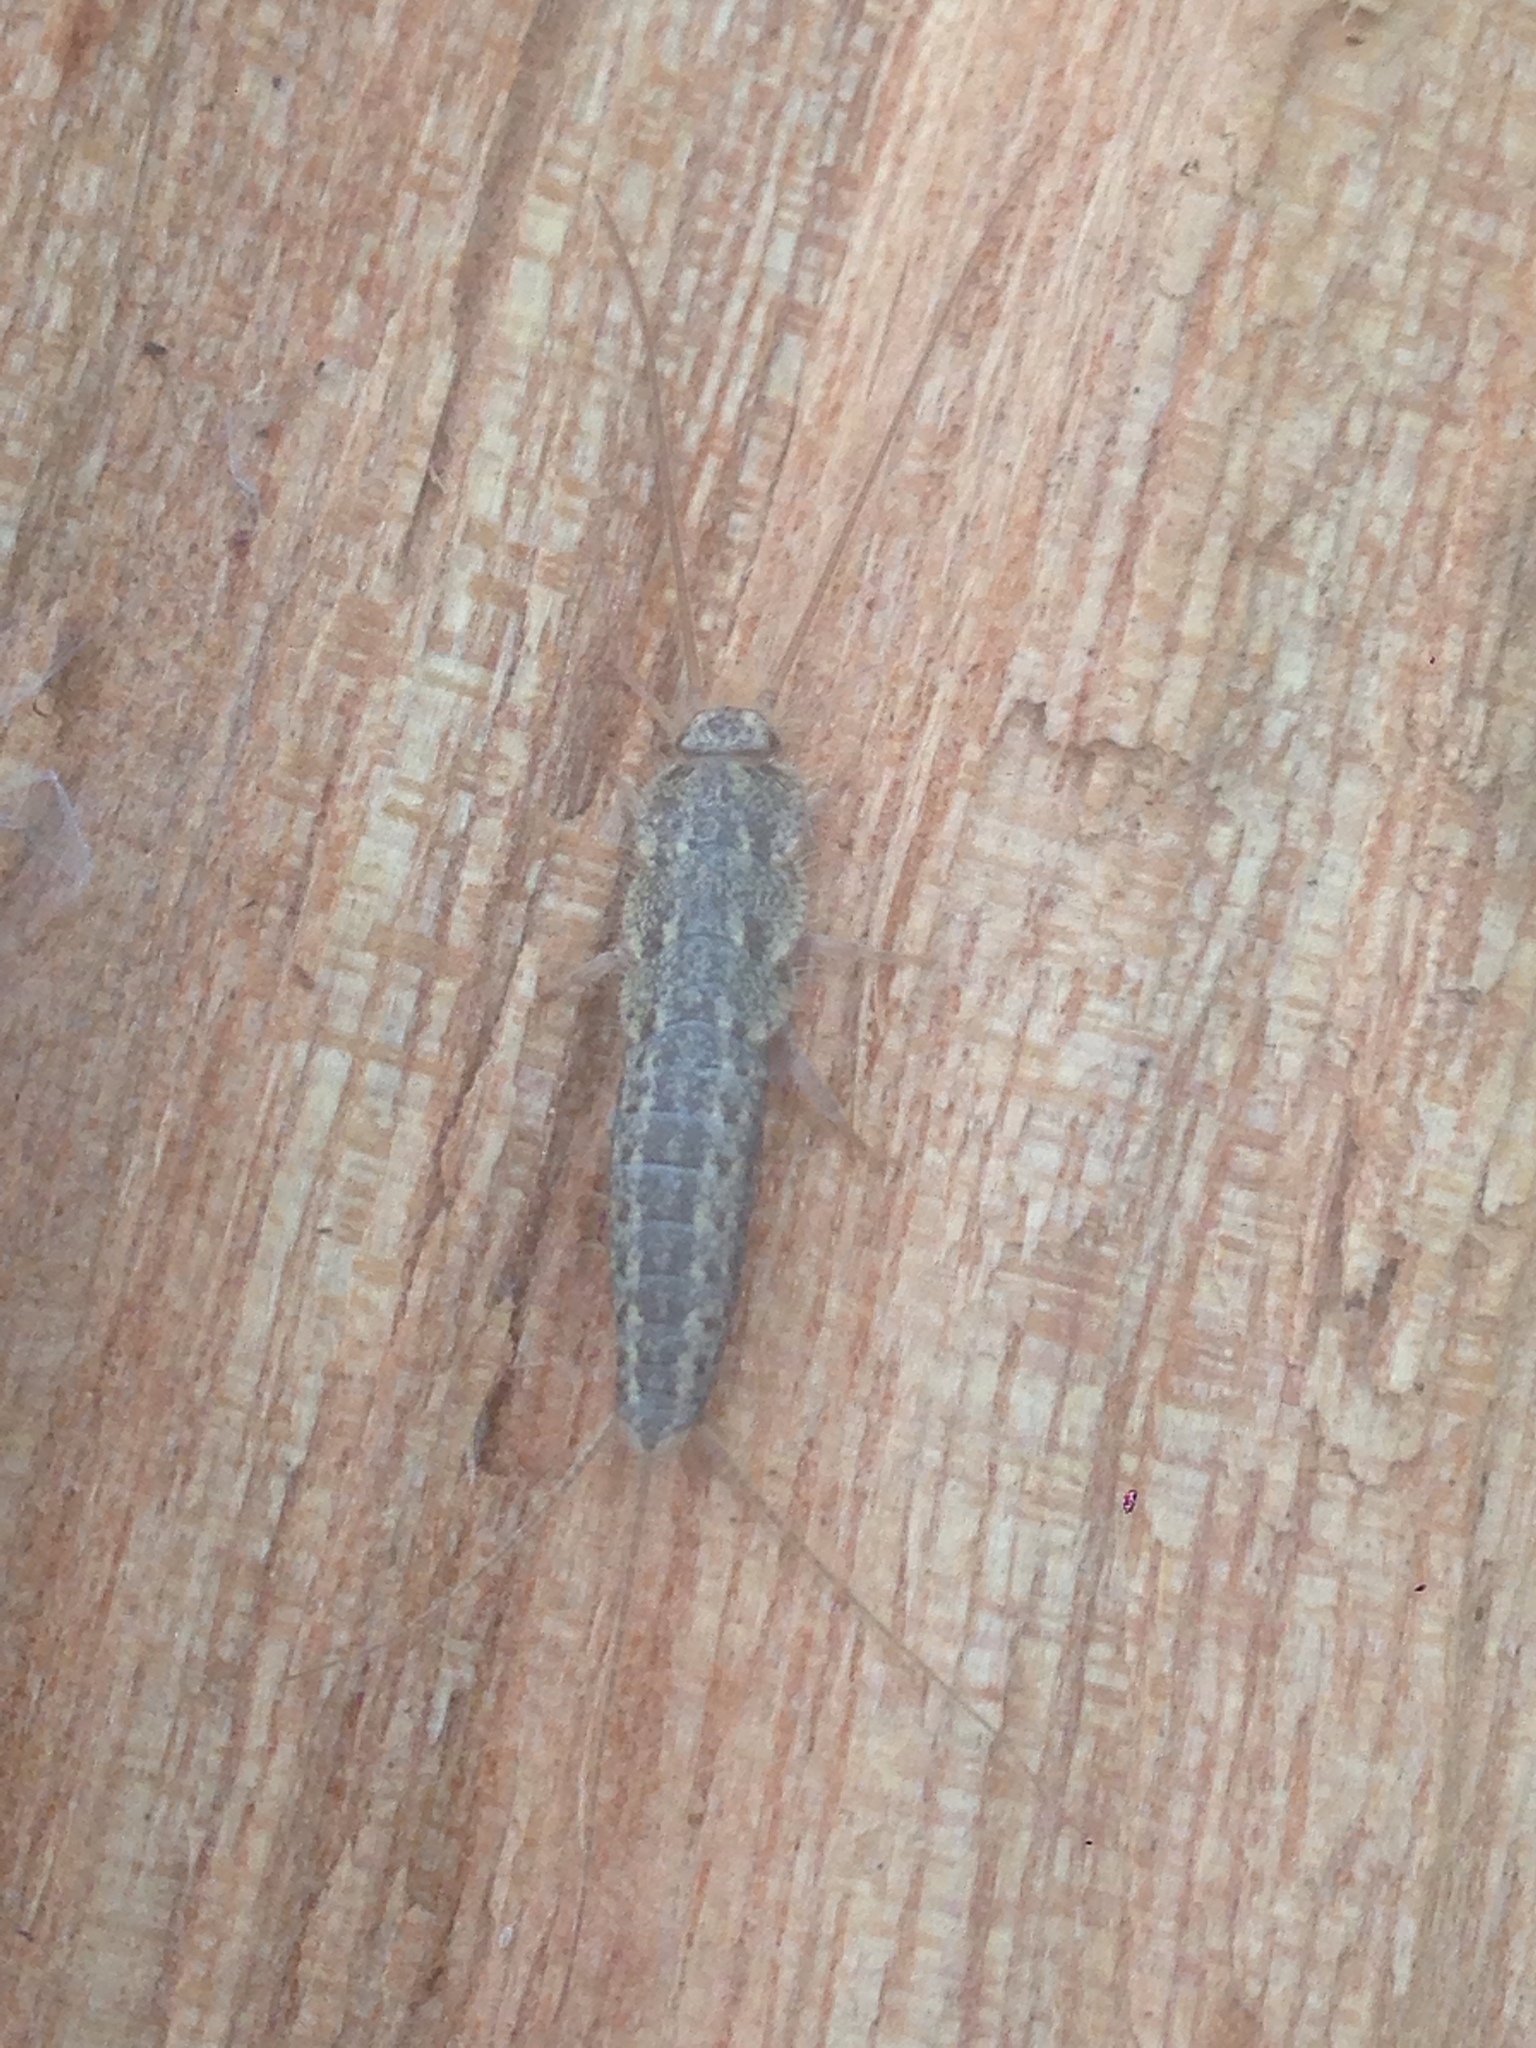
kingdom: Animalia
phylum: Arthropoda
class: Insecta
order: Zygentoma
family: Lepismatidae
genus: Ctenolepisma
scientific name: Ctenolepisma lineata
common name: Four-lined silverfish
